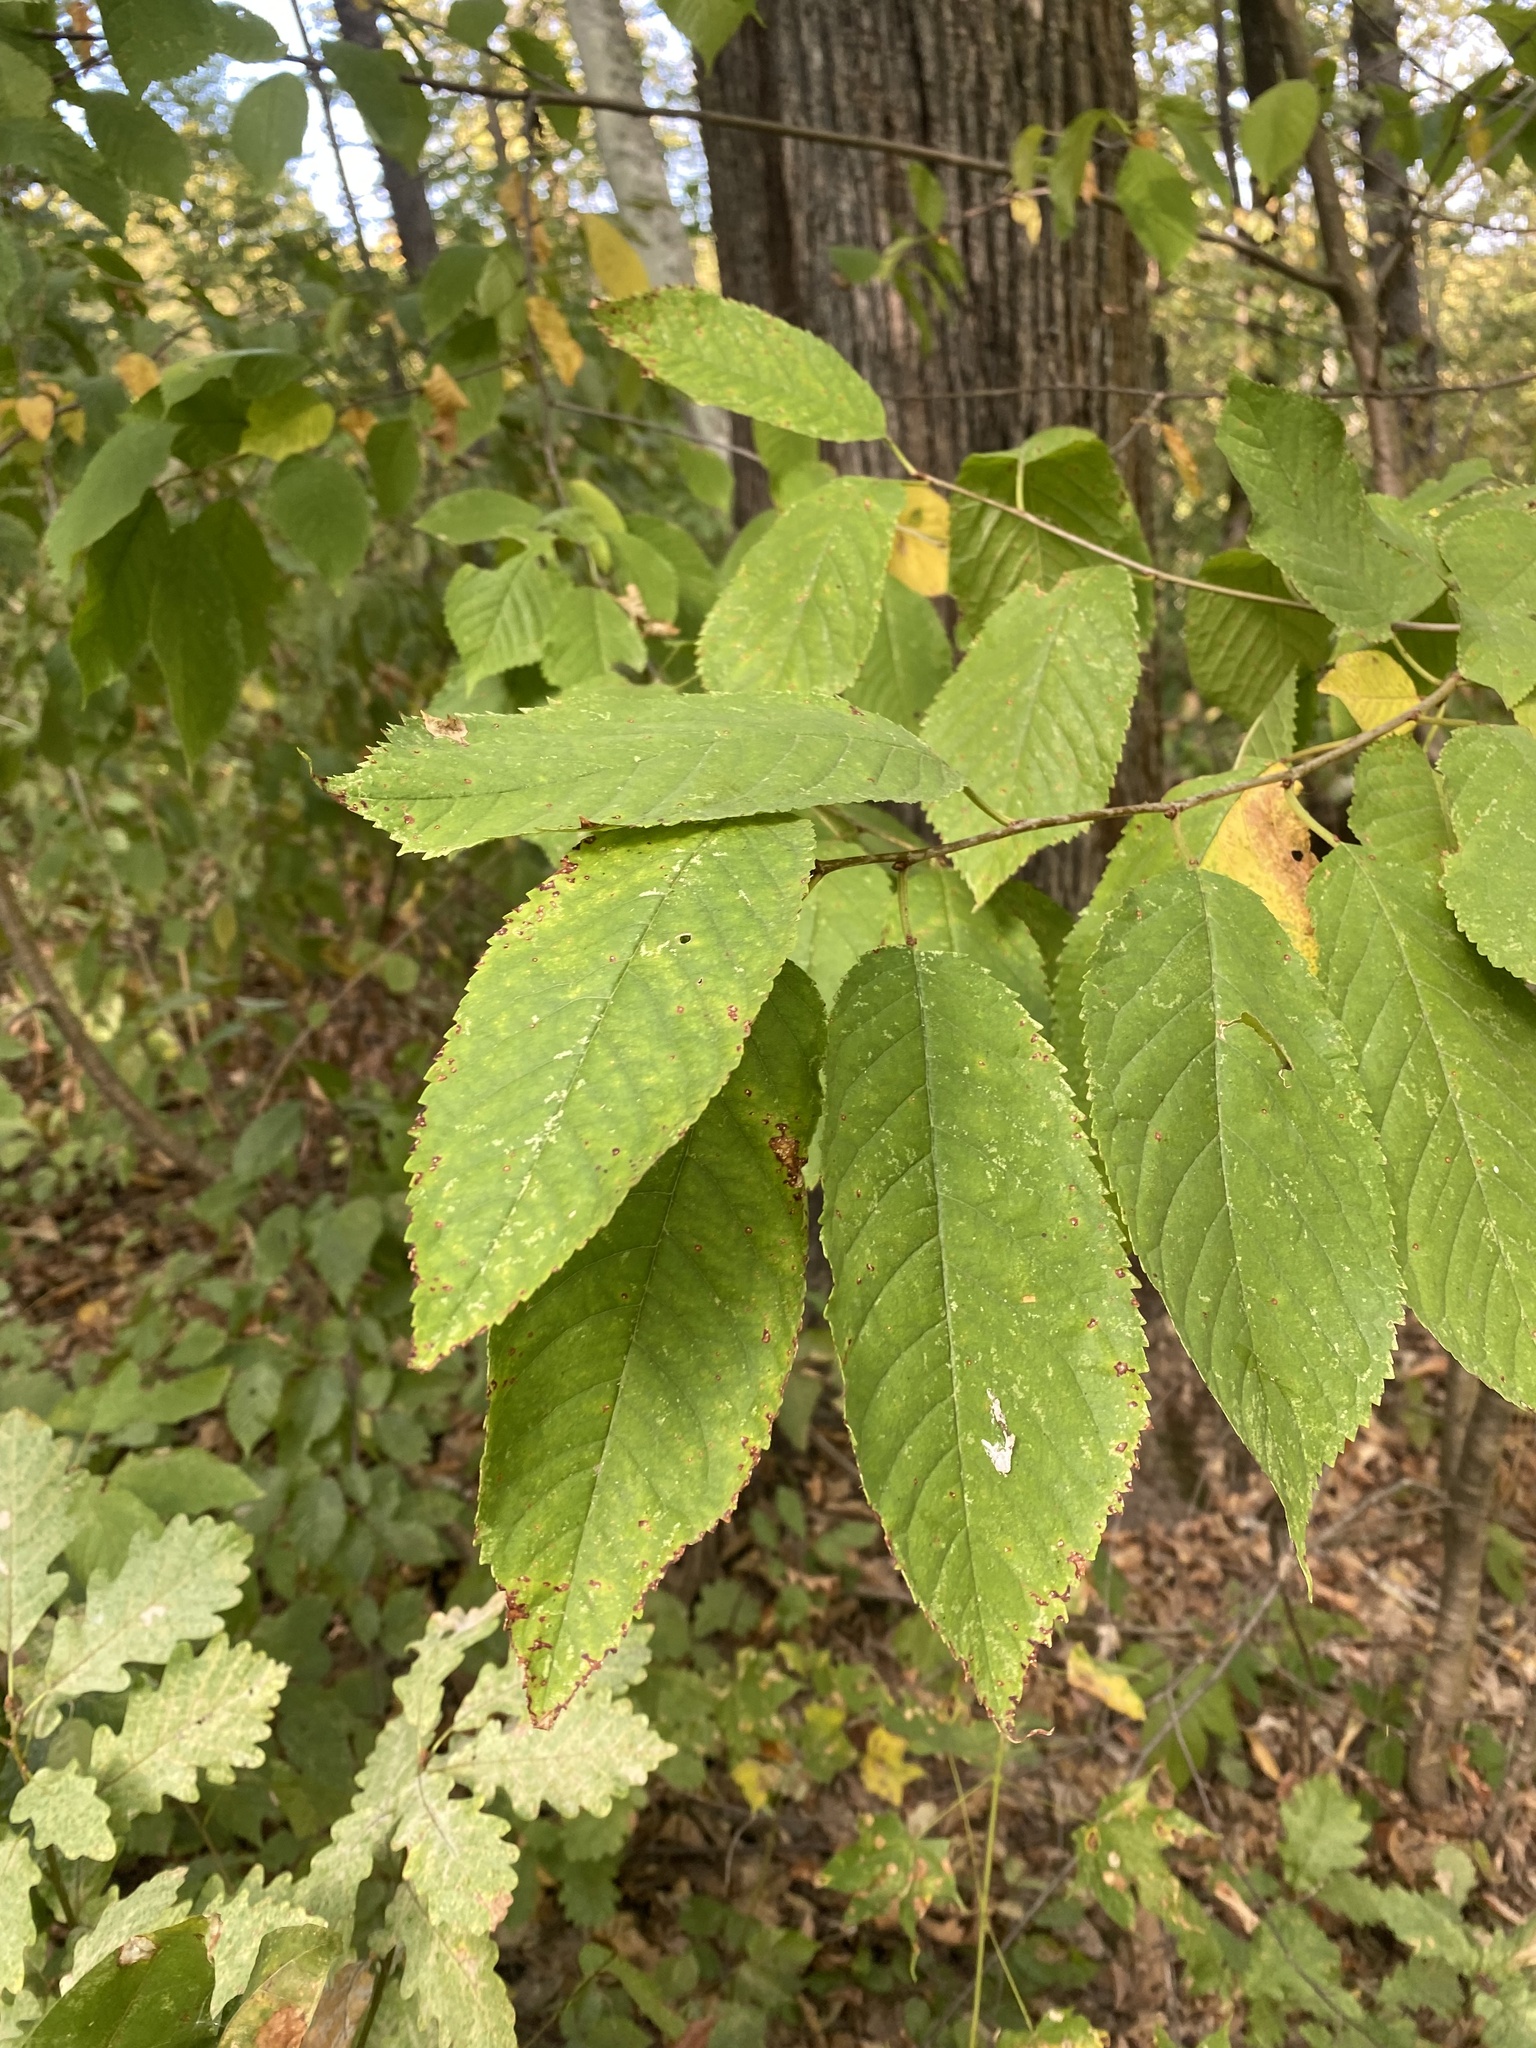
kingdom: Plantae
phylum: Tracheophyta
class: Magnoliopsida
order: Rosales
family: Rosaceae
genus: Prunus
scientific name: Prunus avium
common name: Sweet cherry
